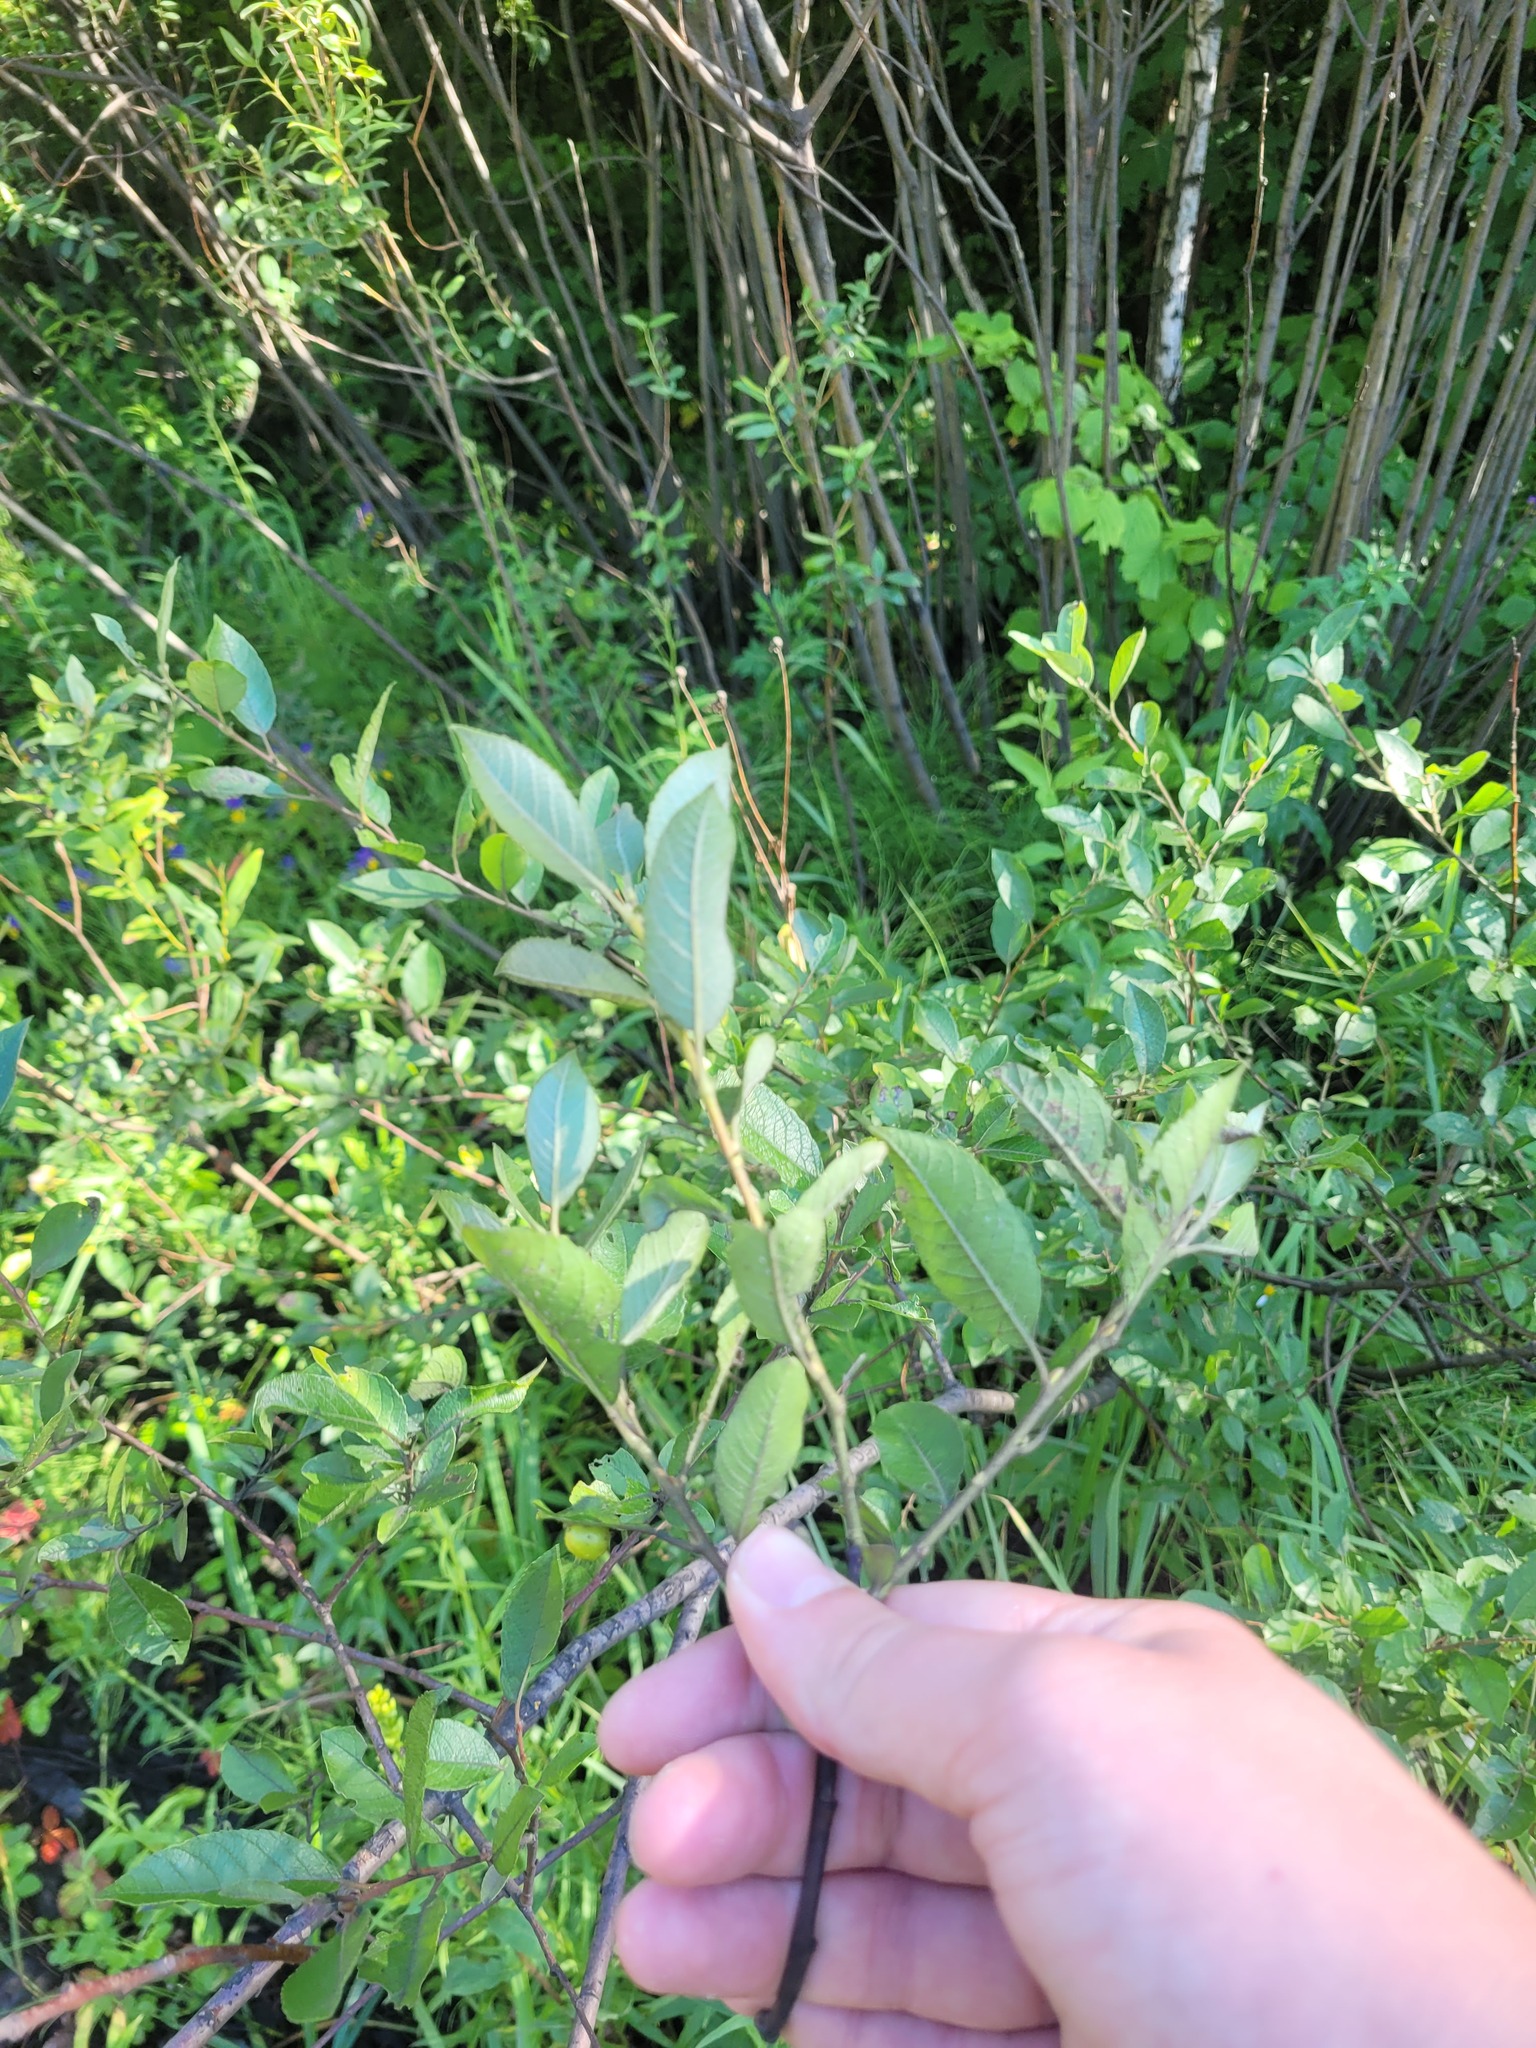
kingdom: Plantae
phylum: Tracheophyta
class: Magnoliopsida
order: Malpighiales
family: Salicaceae
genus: Salix
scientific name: Salix myrsinifolia
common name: Dark-leaved willow
